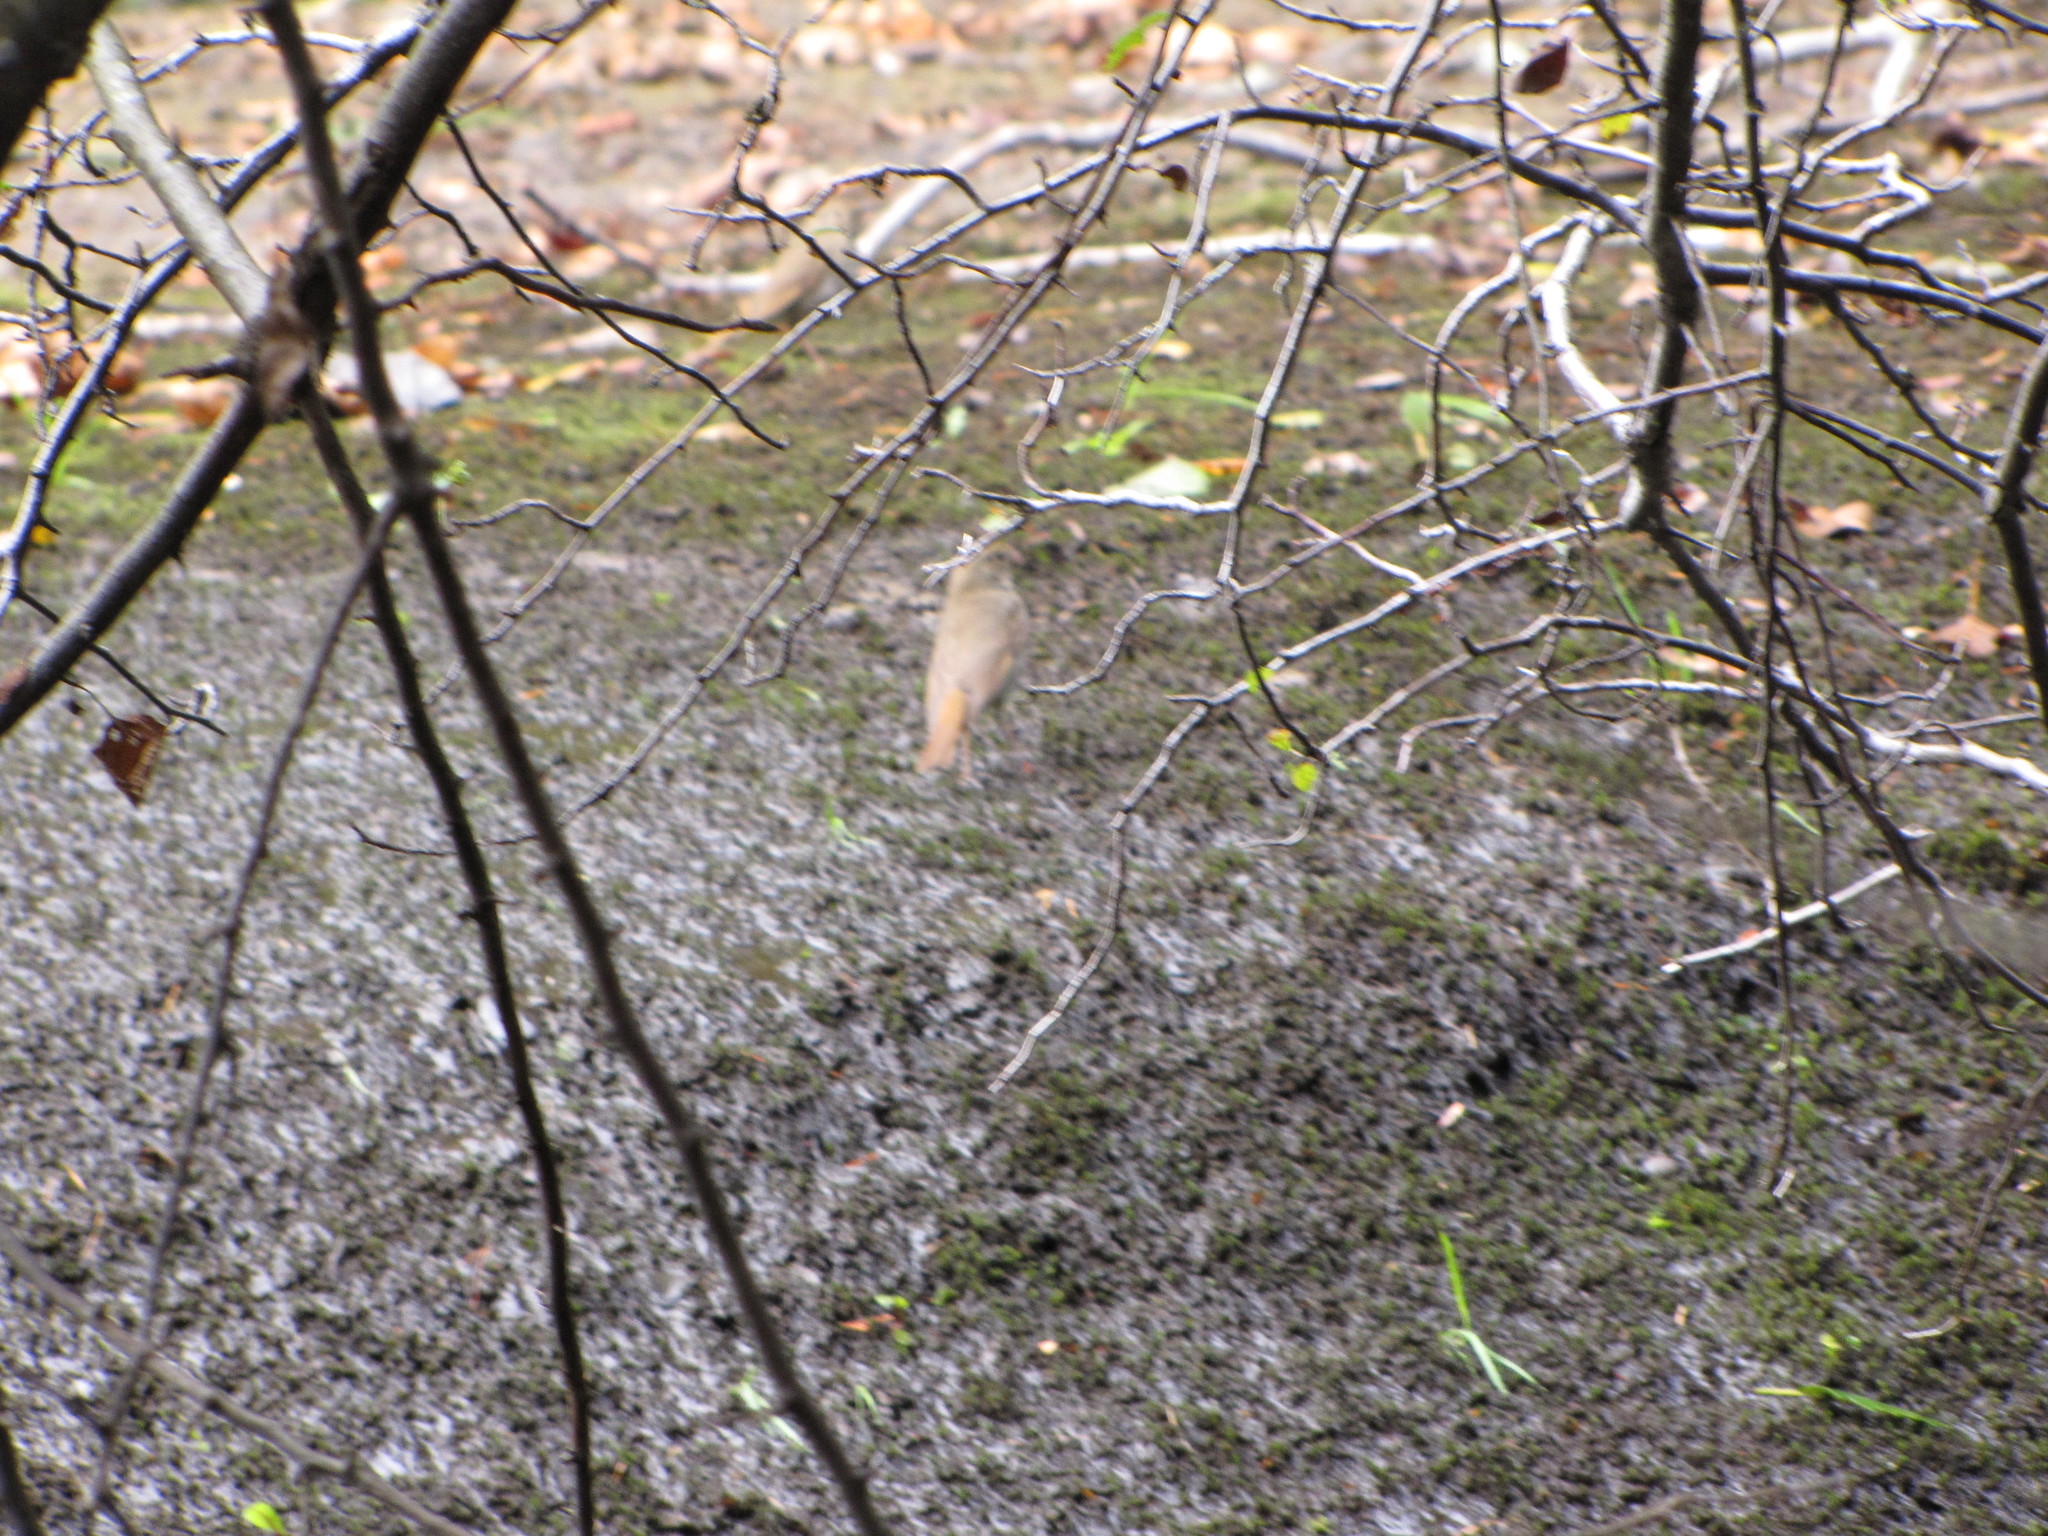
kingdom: Animalia
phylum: Chordata
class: Aves
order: Passeriformes
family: Turdidae
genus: Catharus
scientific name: Catharus guttatus
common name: Hermit thrush
